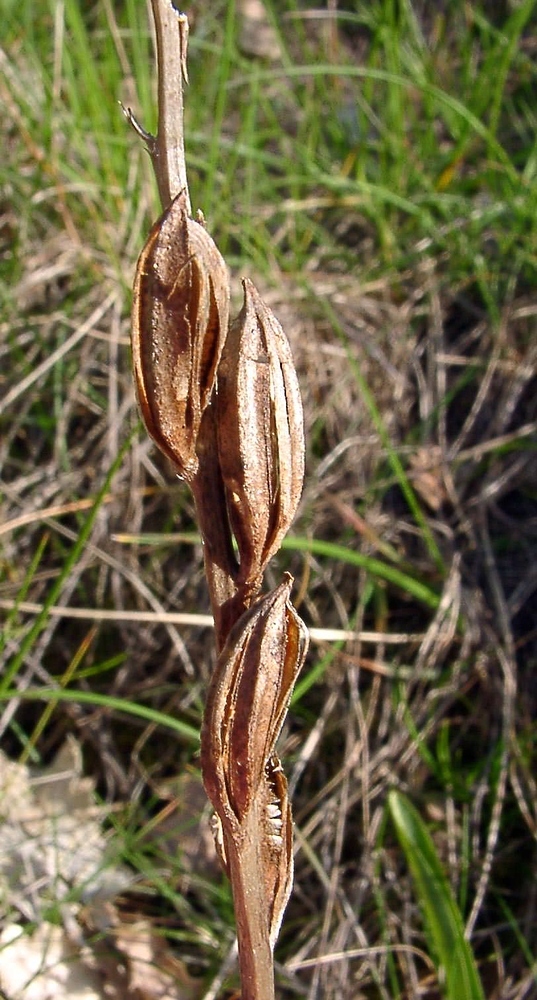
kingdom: Plantae
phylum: Tracheophyta
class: Liliopsida
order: Asparagales
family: Orchidaceae
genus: Orchis
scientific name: Orchis mascula
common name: Early-purple orchid
